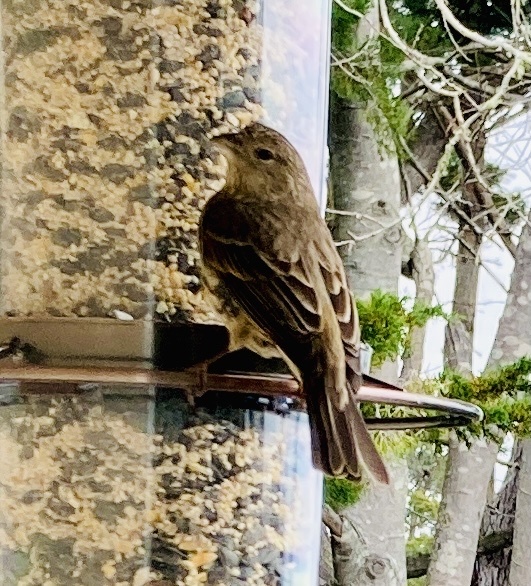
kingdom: Animalia
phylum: Chordata
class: Aves
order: Passeriformes
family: Fringillidae
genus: Haemorhous
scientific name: Haemorhous mexicanus
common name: House finch
